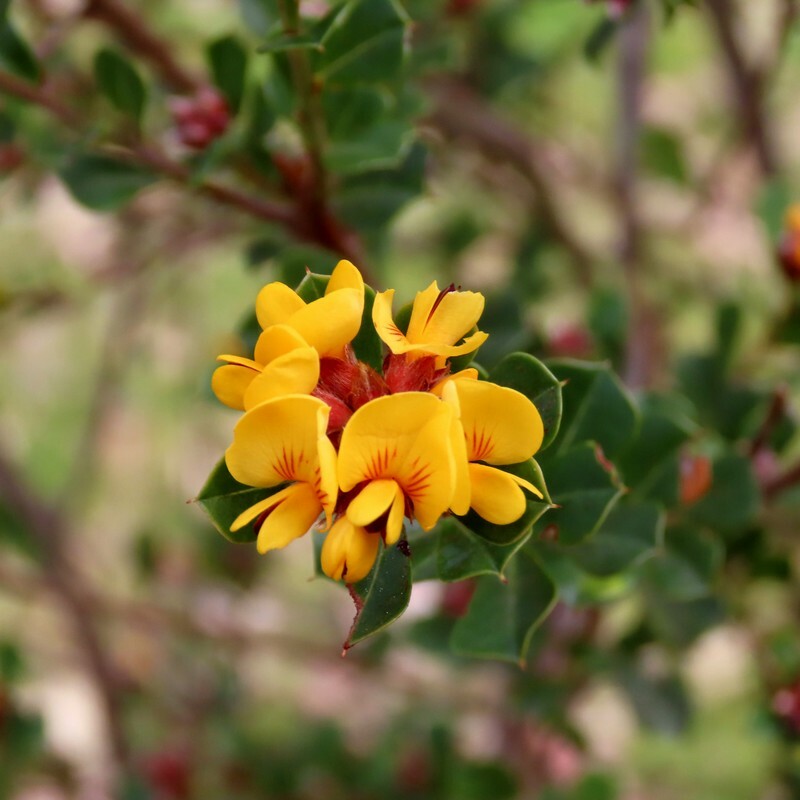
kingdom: Plantae
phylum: Tracheophyta
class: Magnoliopsida
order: Fabales
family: Fabaceae
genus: Pultenaea
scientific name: Pultenaea daphnoides
